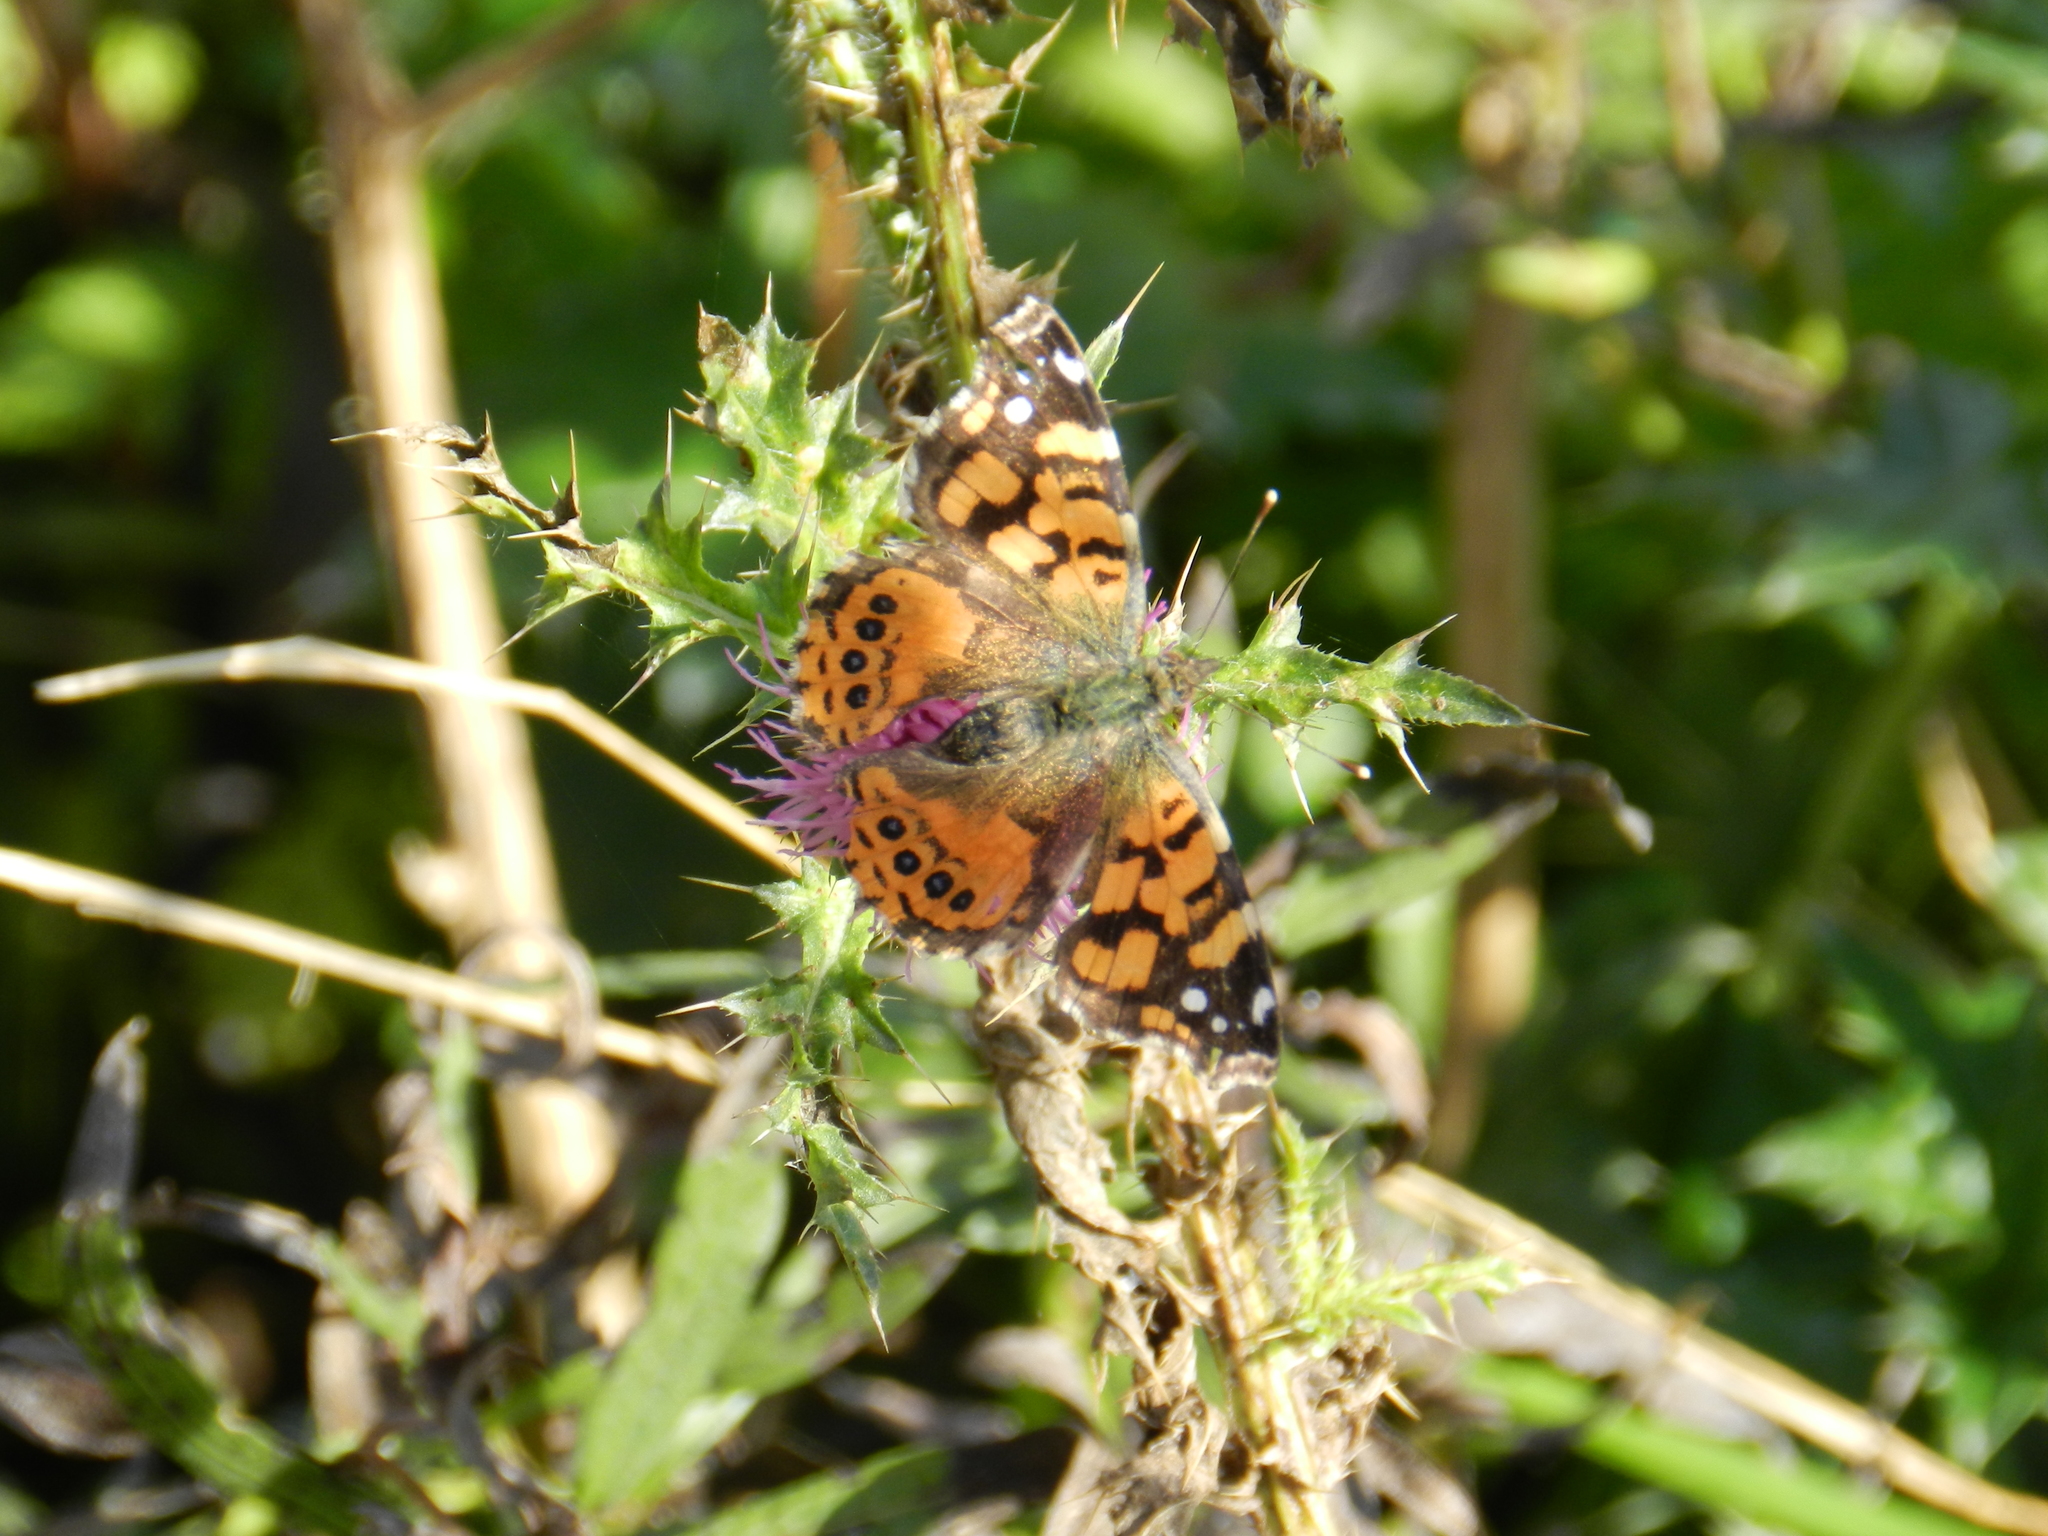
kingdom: Animalia
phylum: Arthropoda
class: Insecta
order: Lepidoptera
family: Nymphalidae
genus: Vanessa
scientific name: Vanessa carye
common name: Subtropical lady
